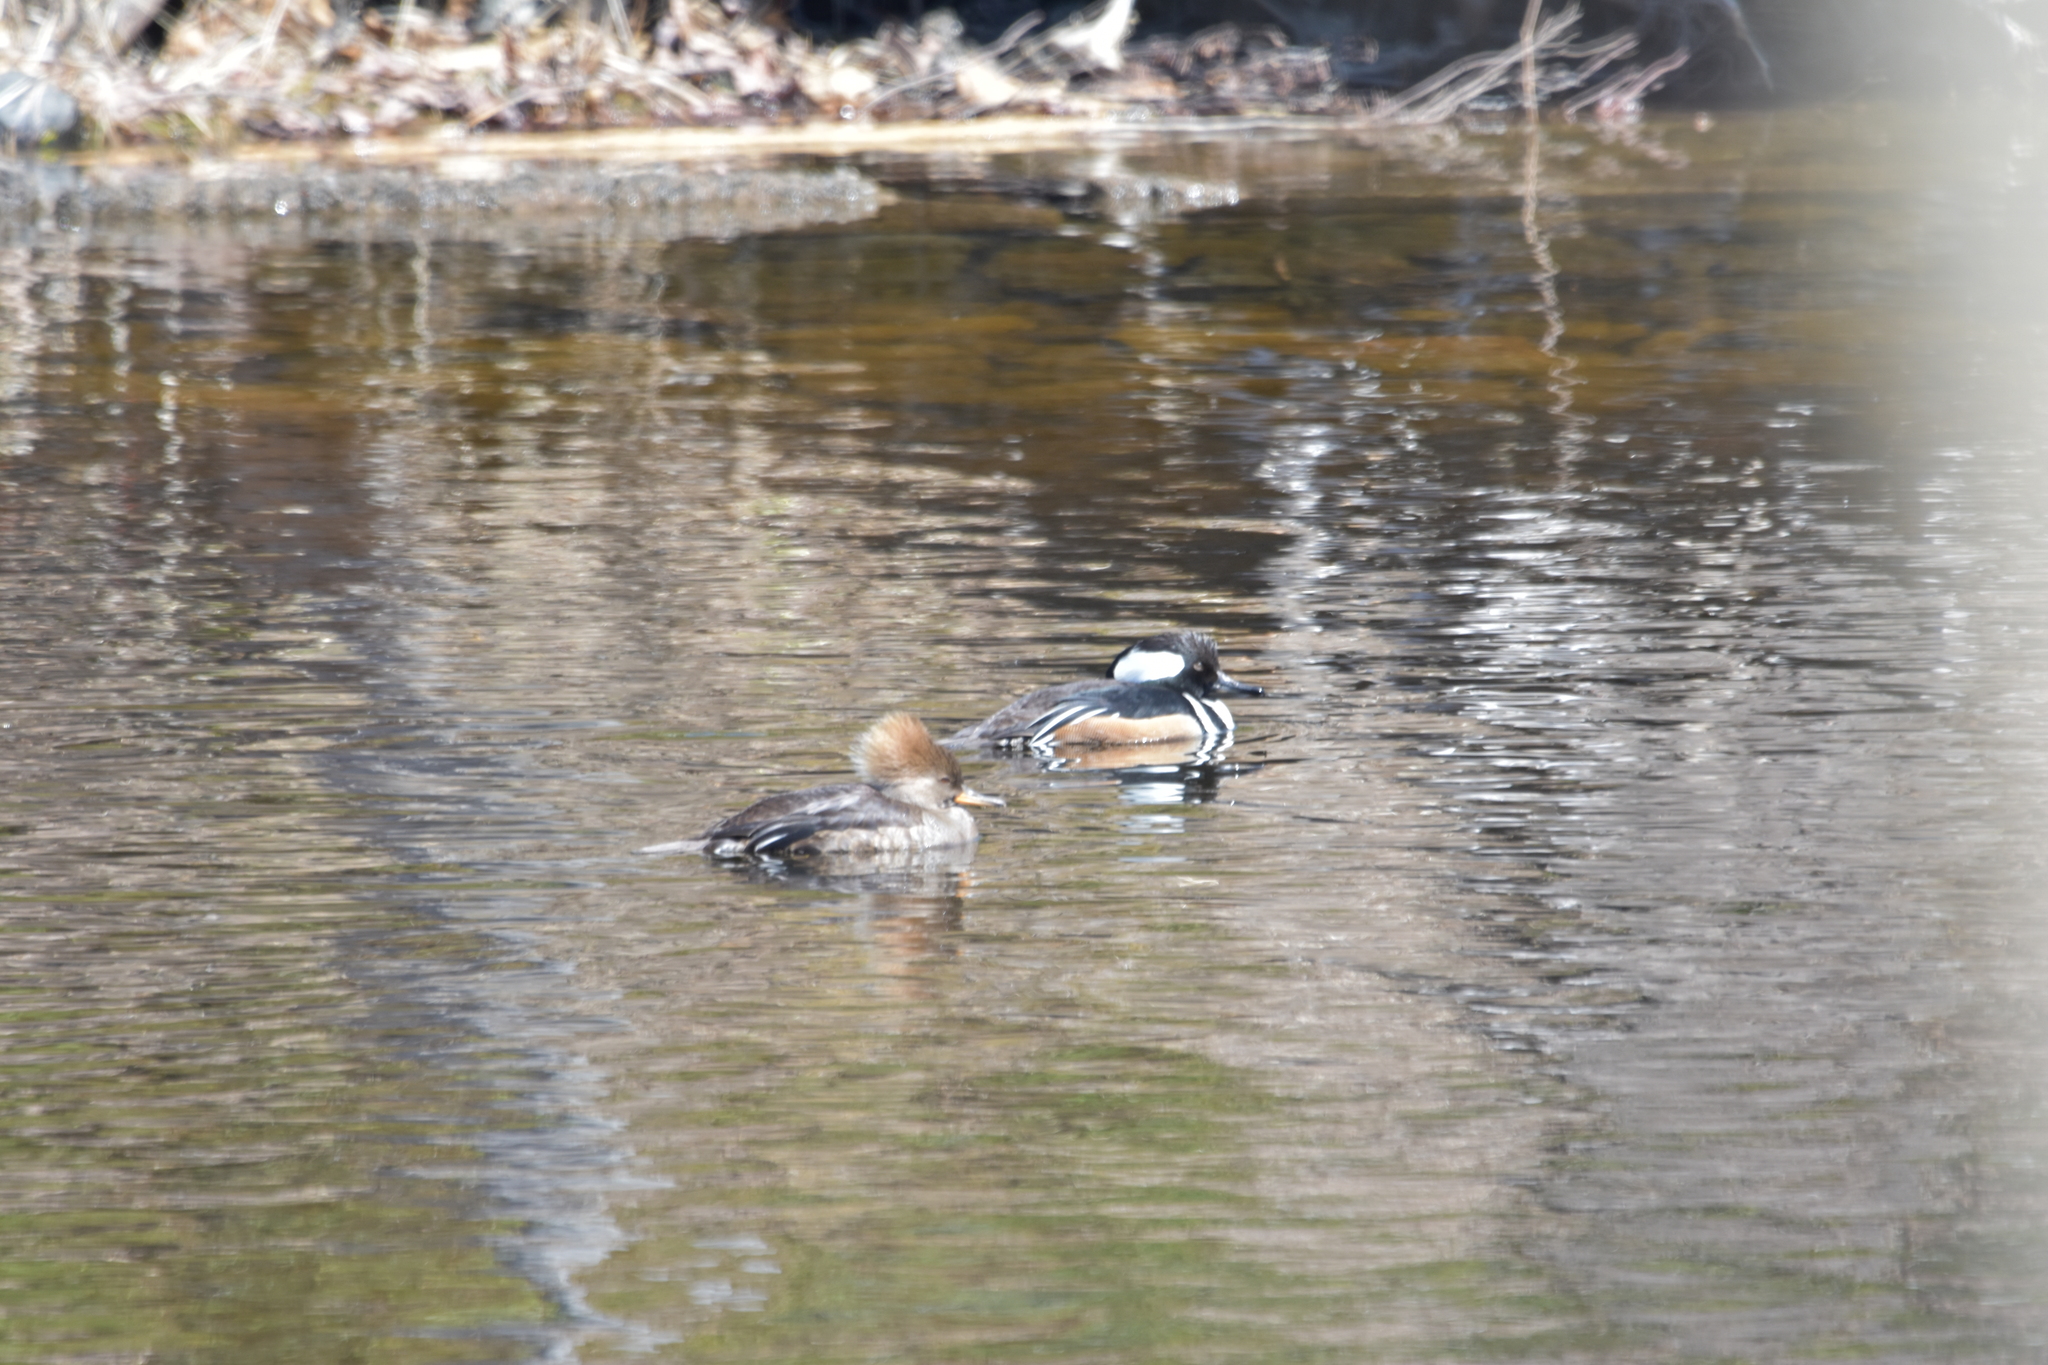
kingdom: Animalia
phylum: Chordata
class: Aves
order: Anseriformes
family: Anatidae
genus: Lophodytes
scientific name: Lophodytes cucullatus
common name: Hooded merganser
